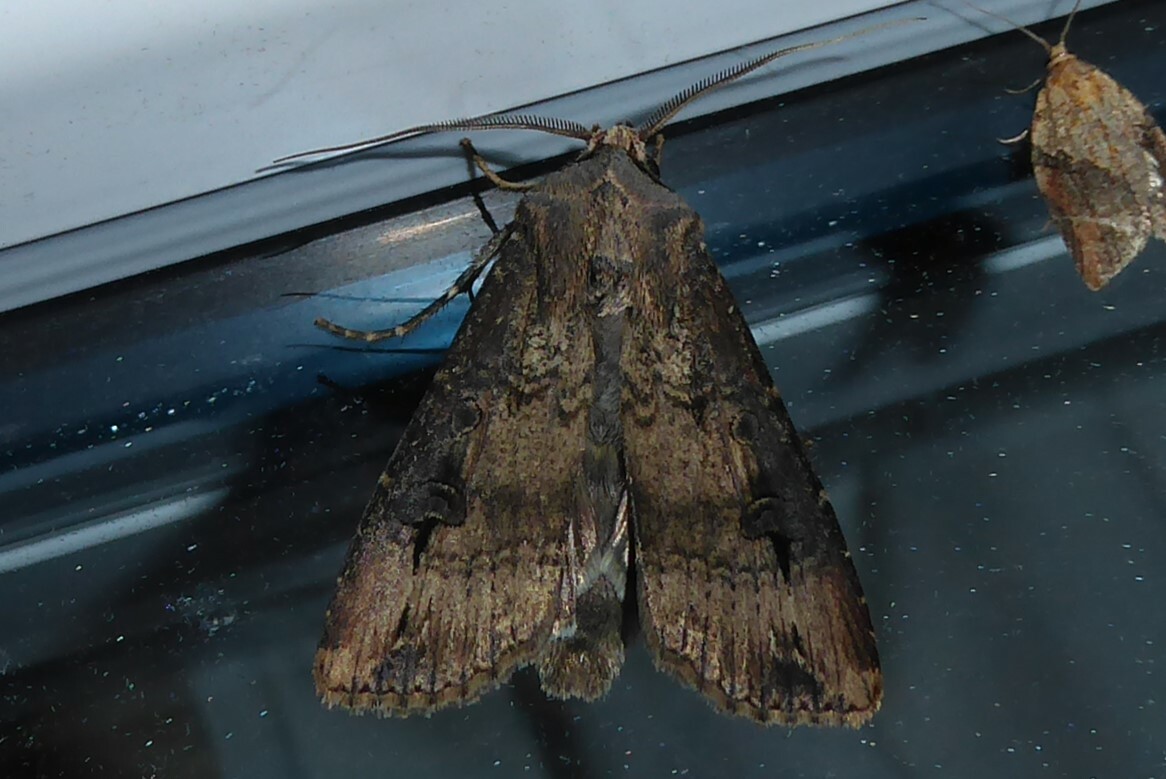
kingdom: Animalia
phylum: Arthropoda
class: Insecta
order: Lepidoptera
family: Noctuidae
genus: Agrotis
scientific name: Agrotis ipsilon
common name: Dark sword-grass
